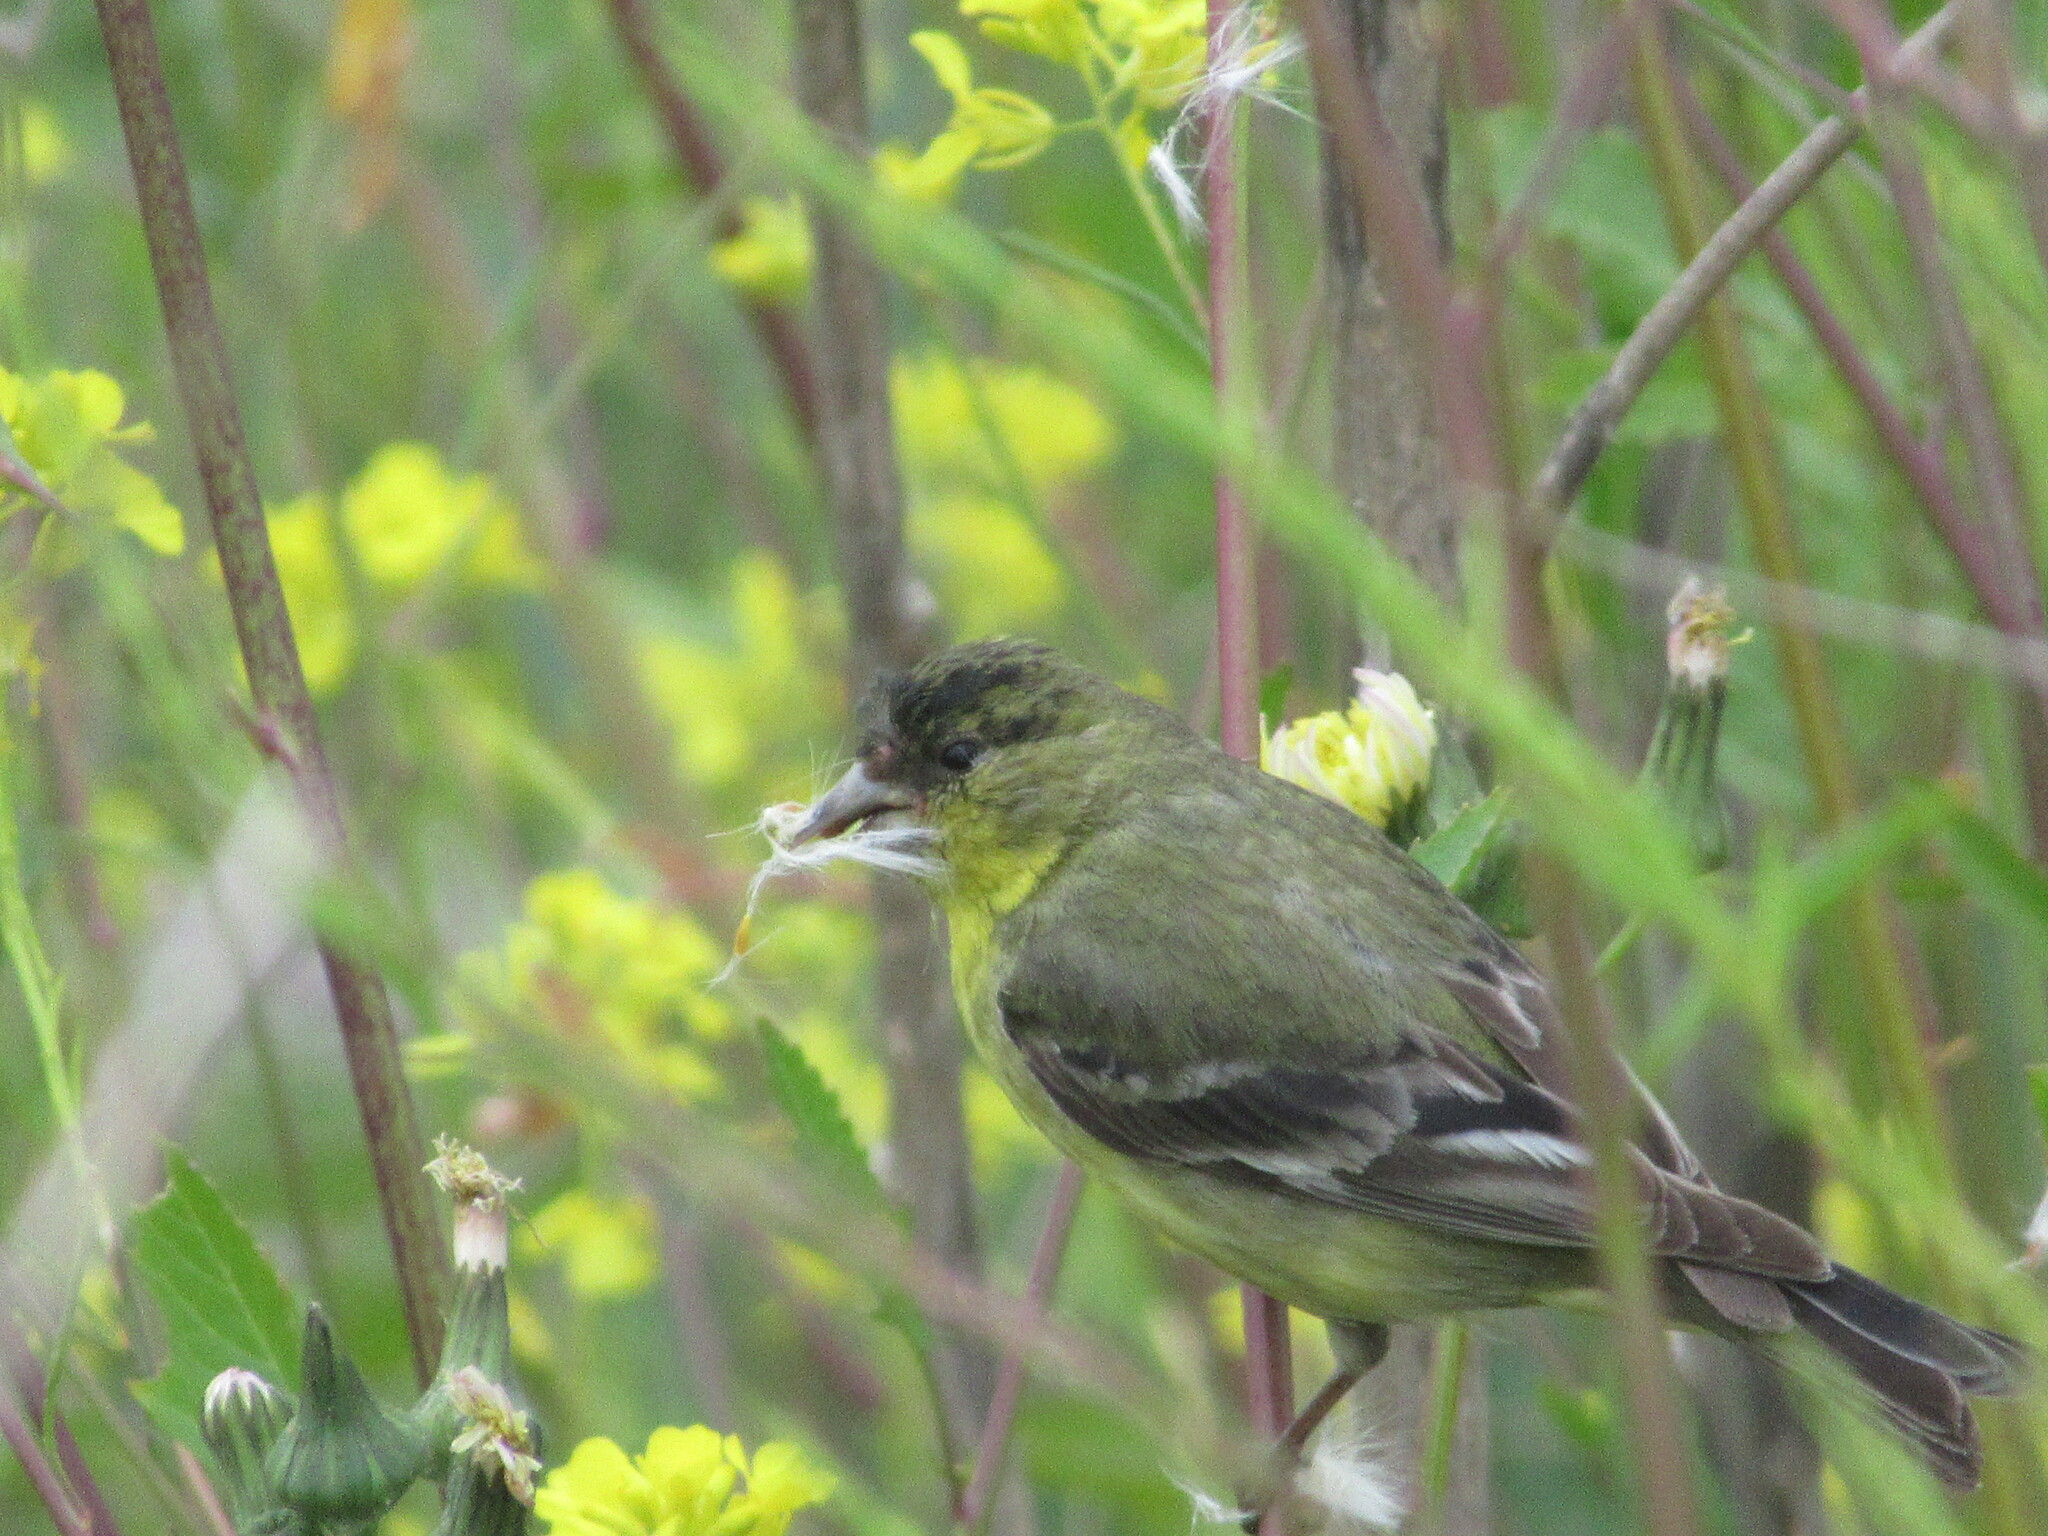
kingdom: Animalia
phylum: Chordata
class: Aves
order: Passeriformes
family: Fringillidae
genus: Spinus
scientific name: Spinus psaltria
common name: Lesser goldfinch
